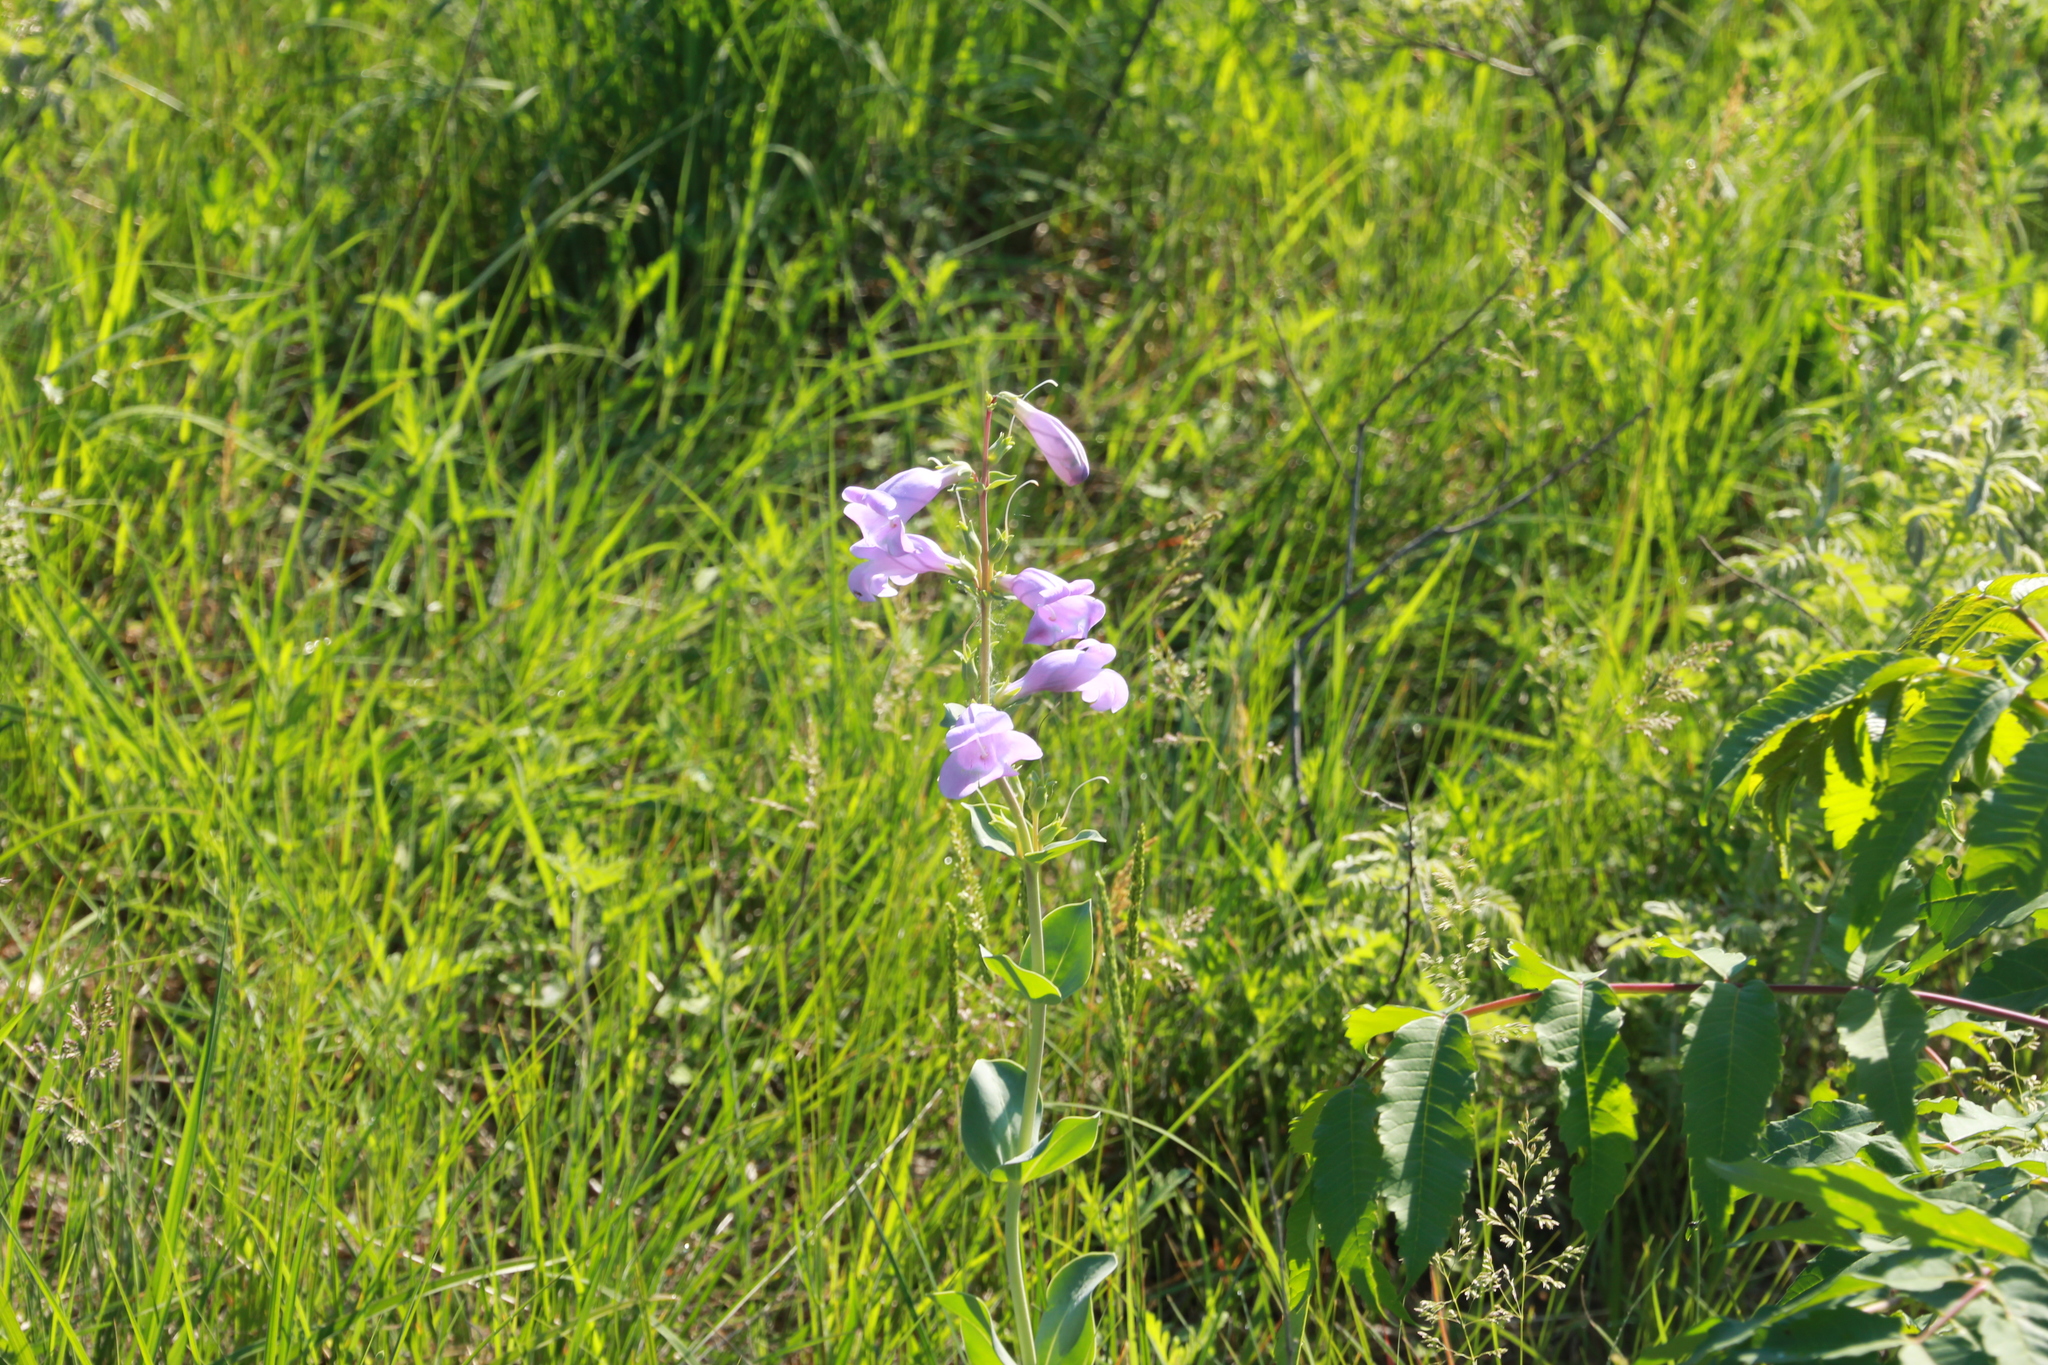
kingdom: Plantae
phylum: Tracheophyta
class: Magnoliopsida
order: Lamiales
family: Plantaginaceae
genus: Penstemon
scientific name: Penstemon
